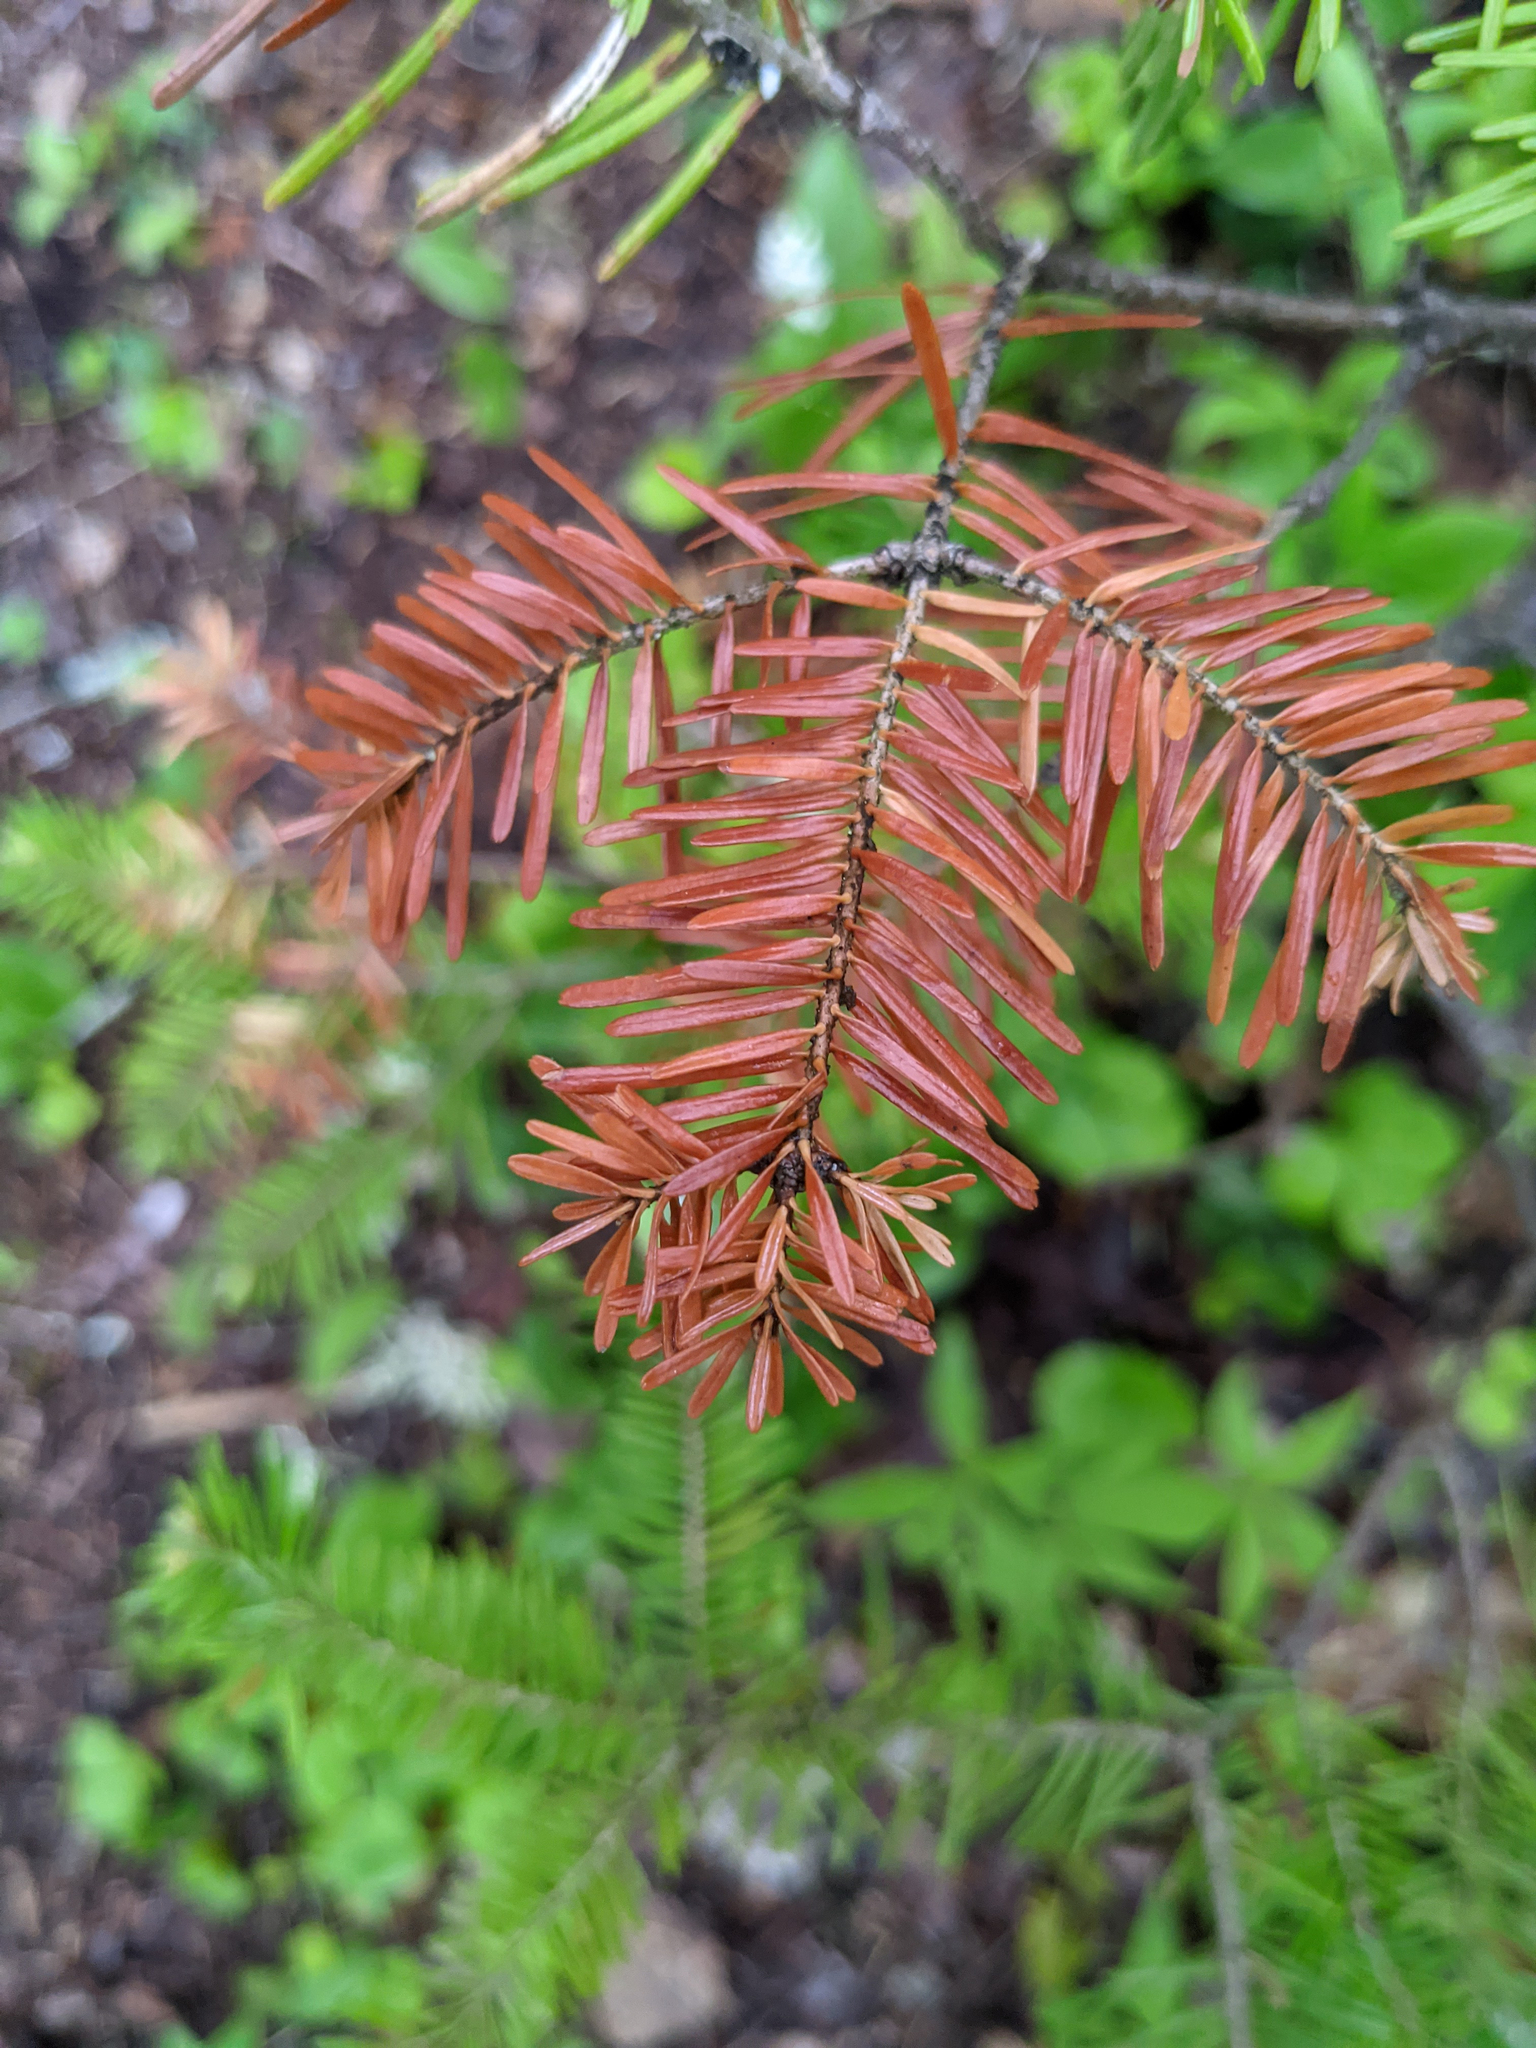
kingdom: Plantae
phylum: Tracheophyta
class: Pinopsida
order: Pinales
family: Pinaceae
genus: Abies
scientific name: Abies balsamea
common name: Balsam fir
